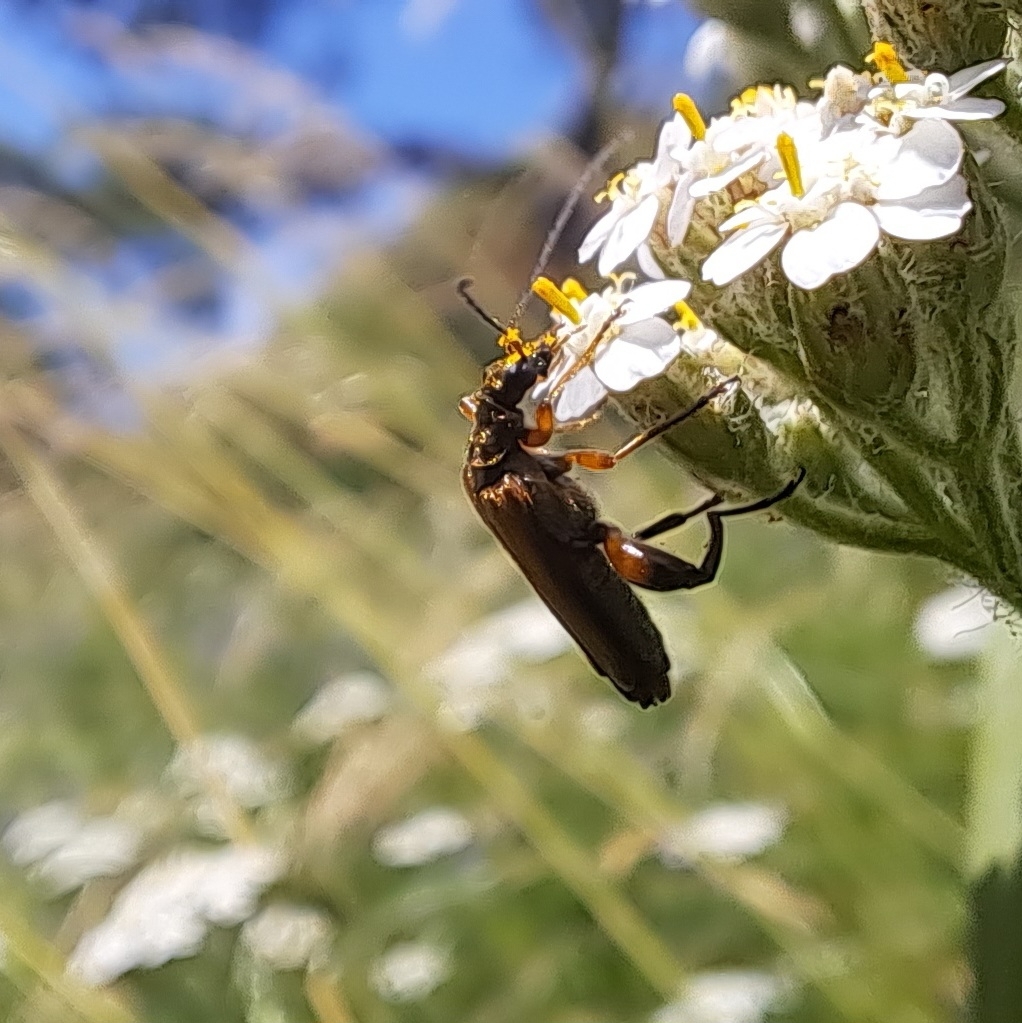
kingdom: Animalia
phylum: Arthropoda
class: Insecta
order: Coleoptera
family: Oedemeridae
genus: Oedemera
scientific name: Oedemera podagrariae
